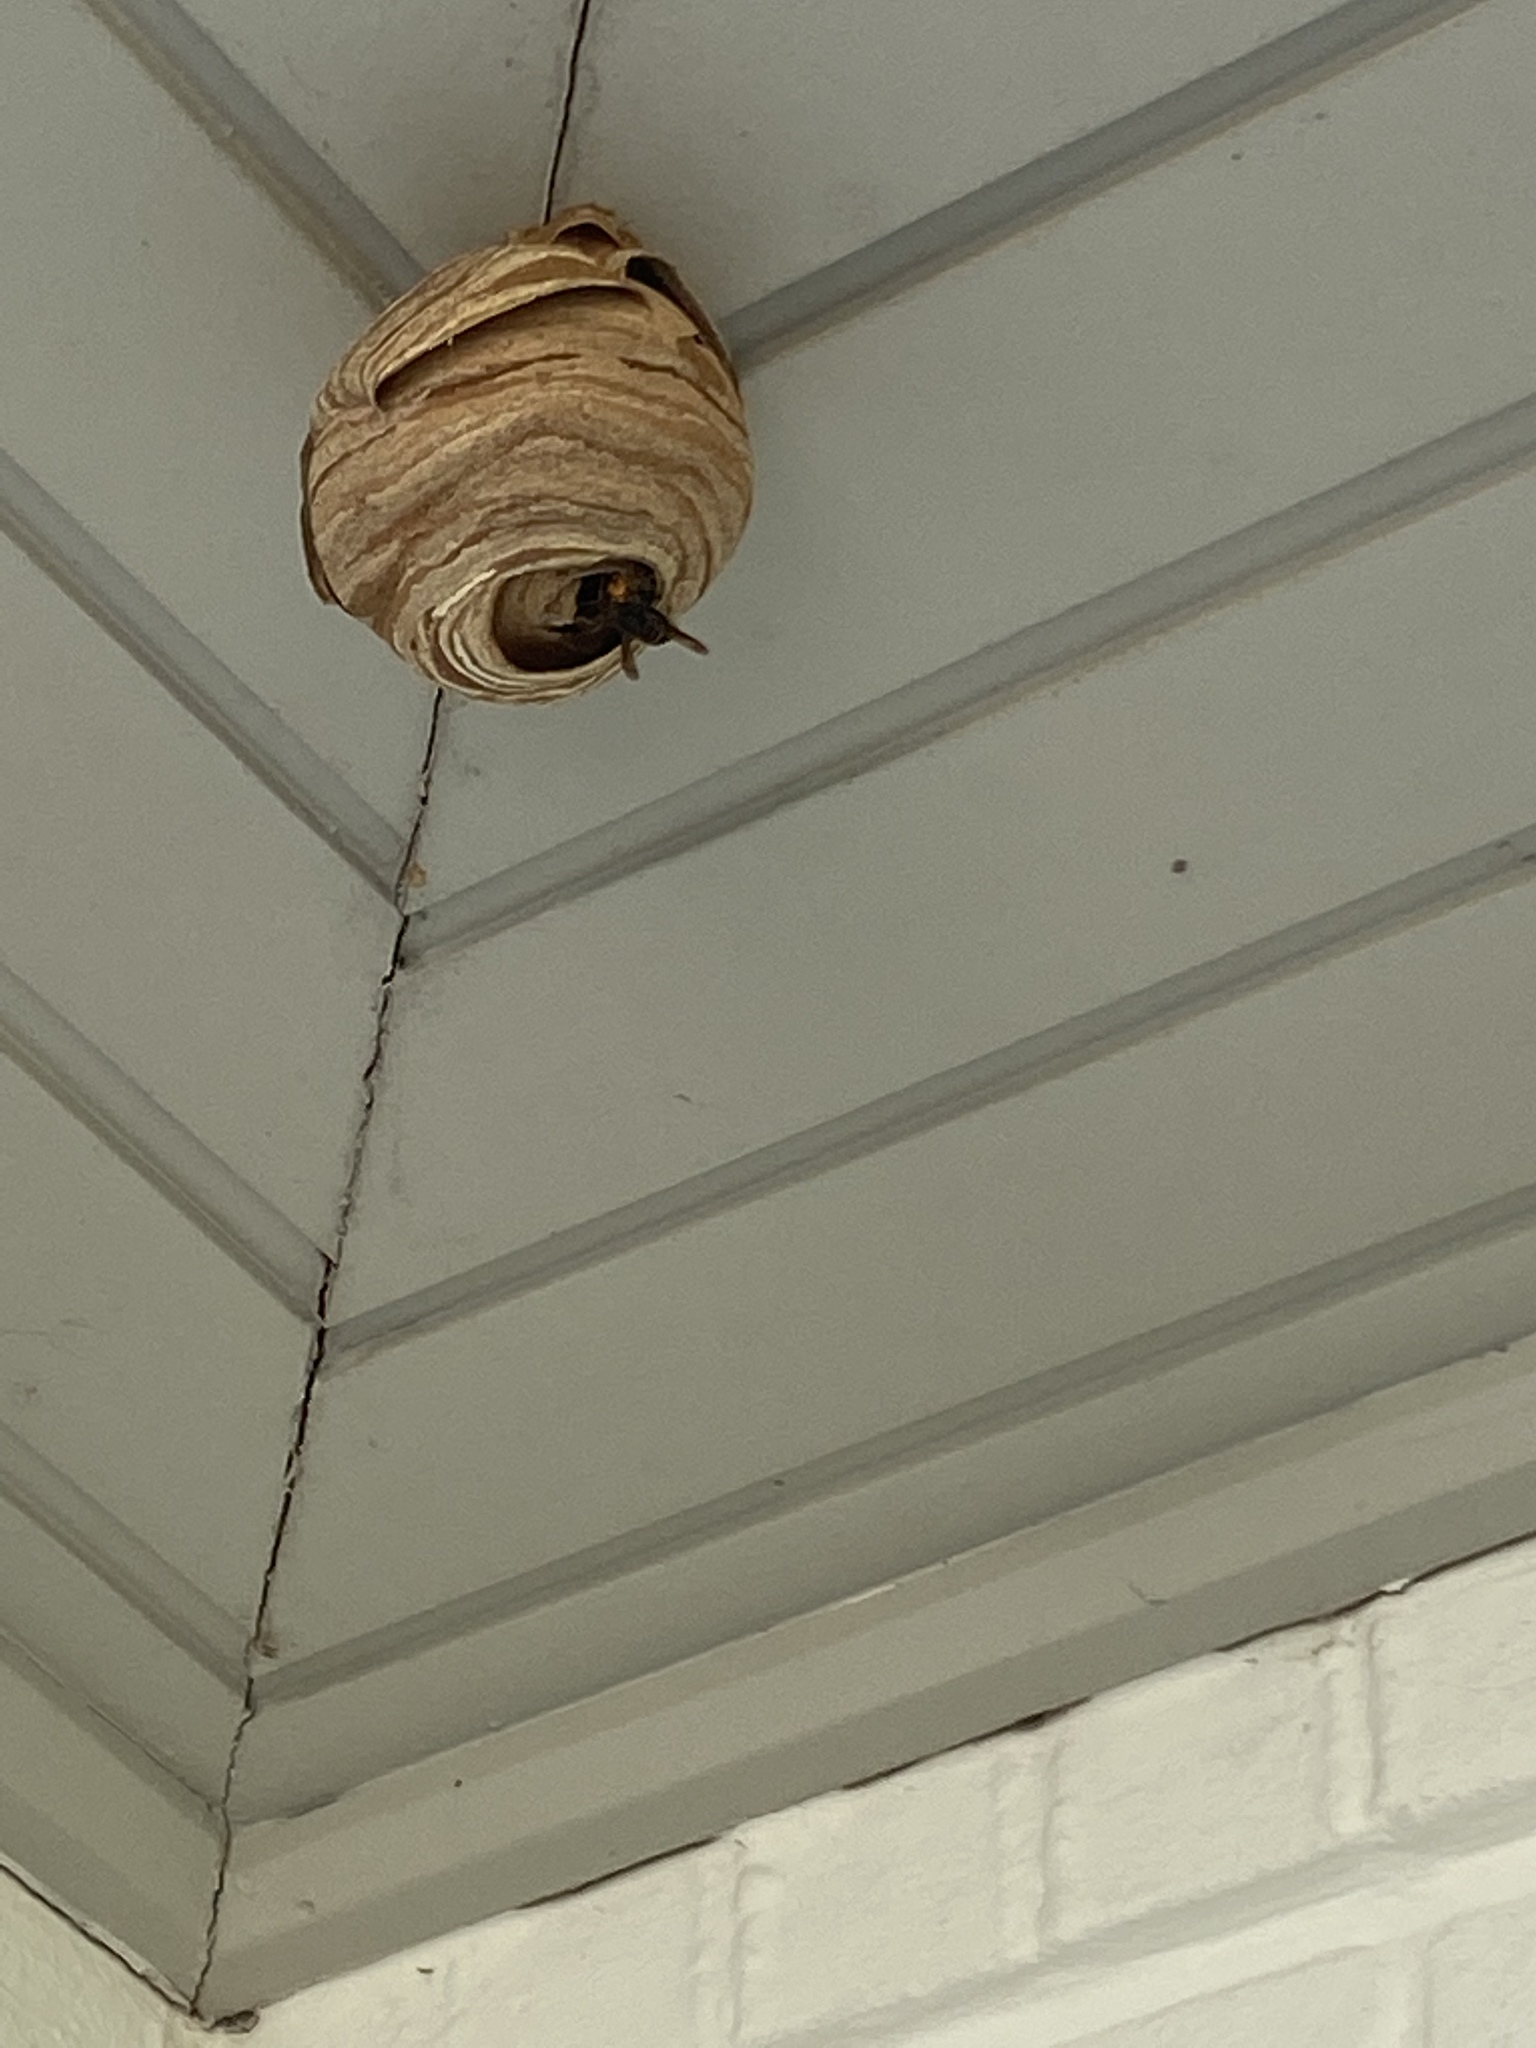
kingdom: Animalia
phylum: Arthropoda
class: Insecta
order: Hymenoptera
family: Vespidae
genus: Vespa
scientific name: Vespa velutina
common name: Asian hornet
